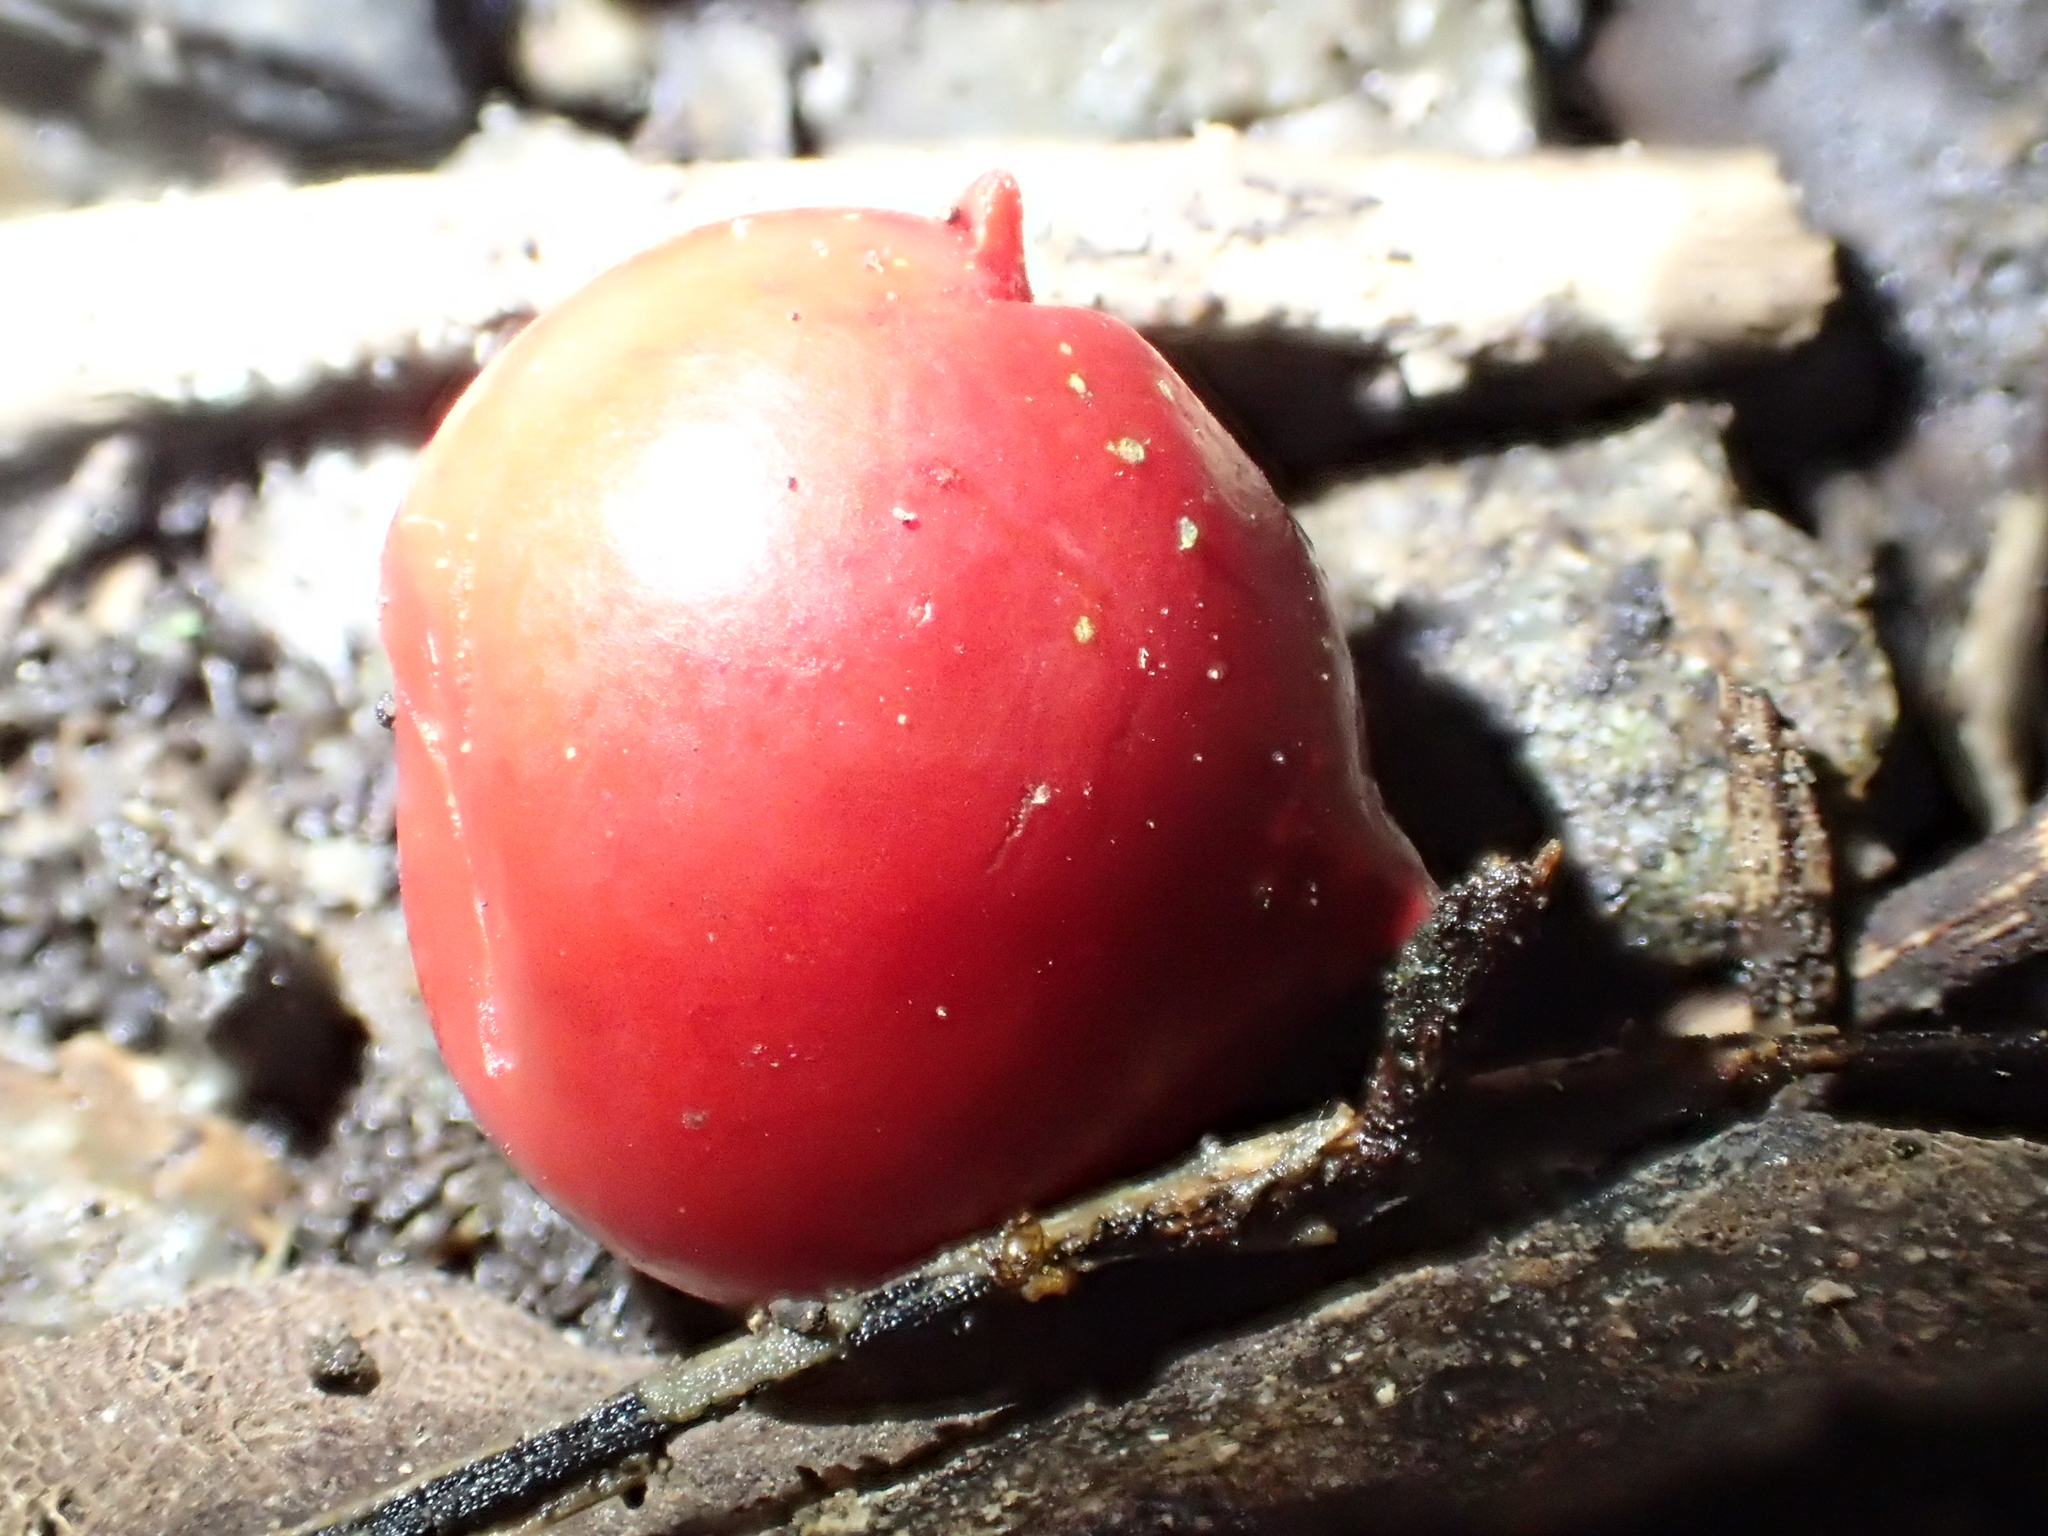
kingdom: Plantae
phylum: Tracheophyta
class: Liliopsida
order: Liliales
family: Ripogonaceae
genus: Ripogonum
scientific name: Ripogonum scandens
